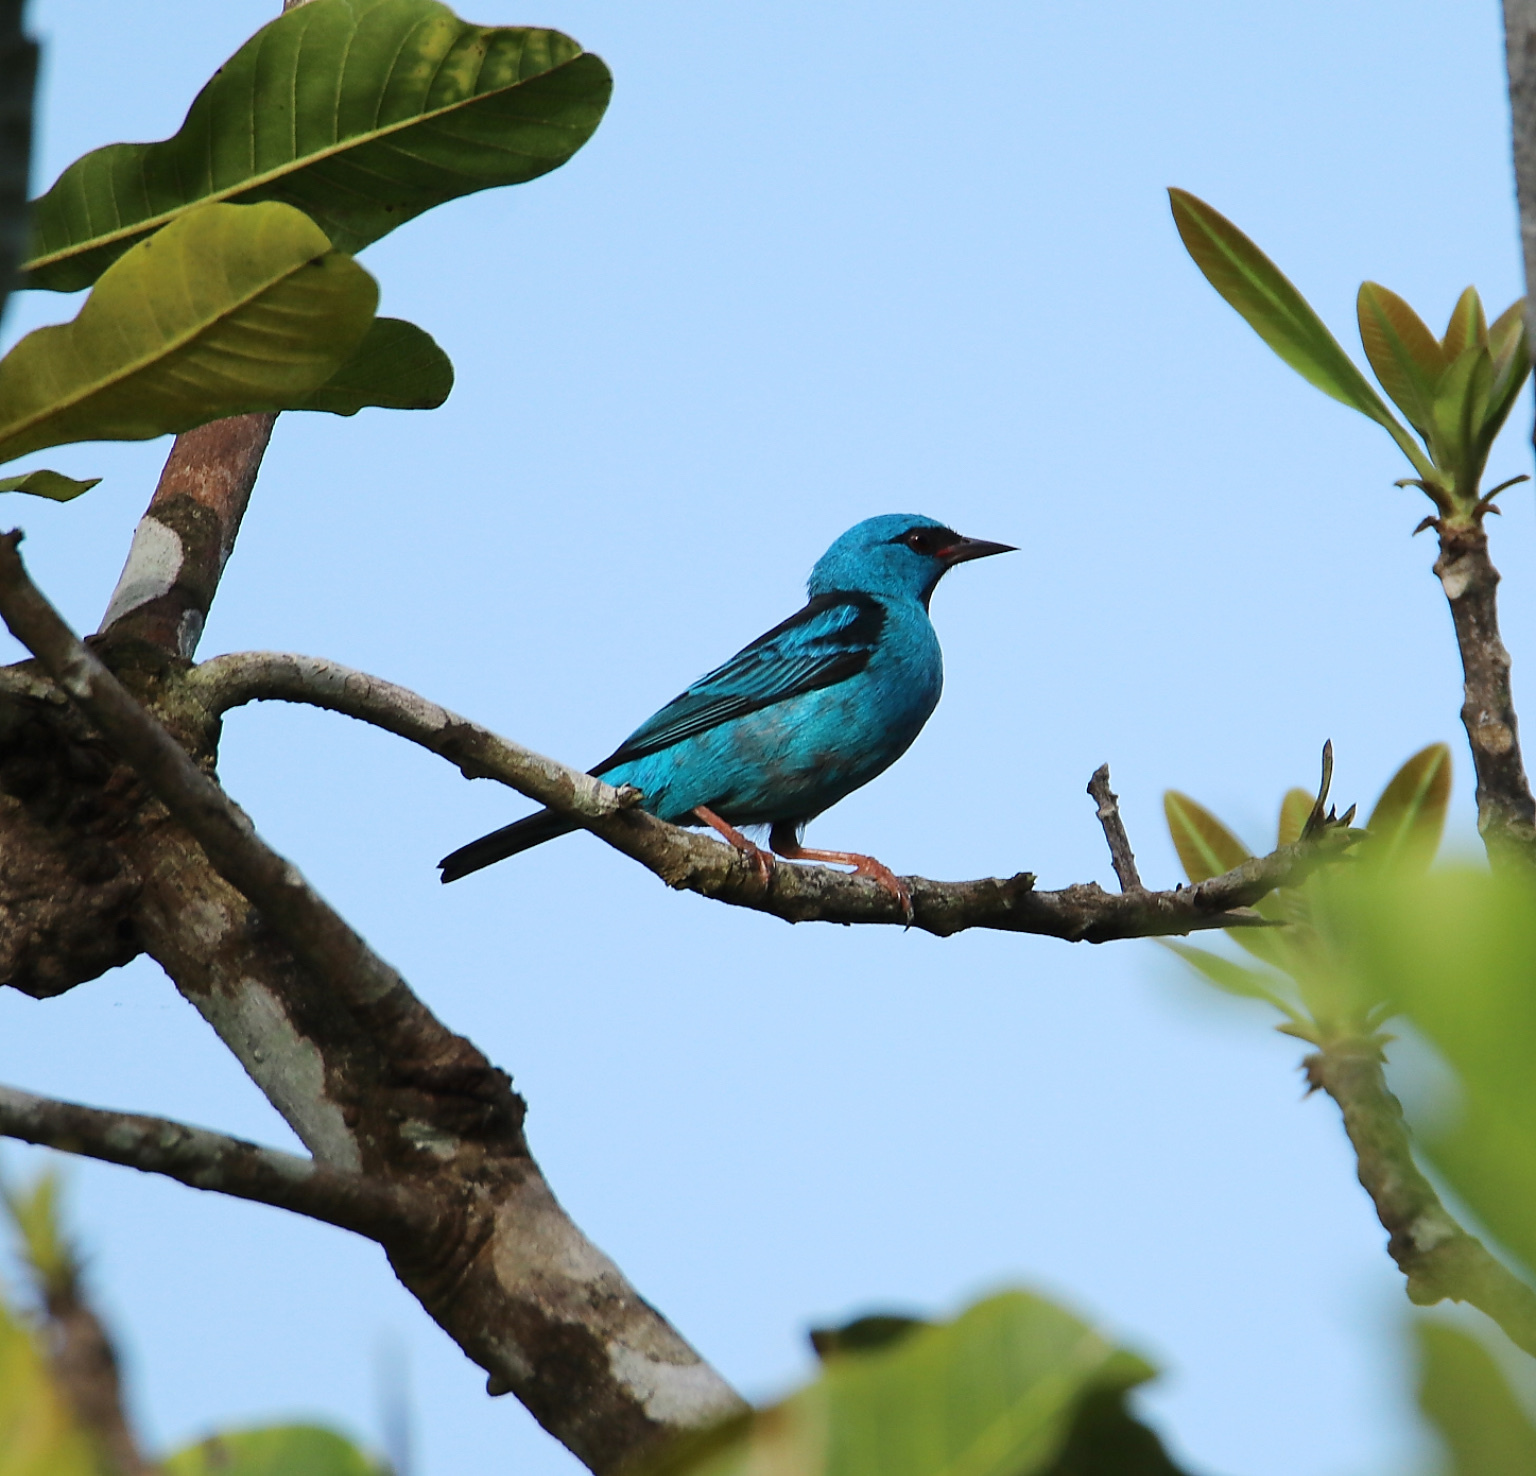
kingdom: Animalia
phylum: Chordata
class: Aves
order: Passeriformes
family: Thraupidae
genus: Dacnis
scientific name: Dacnis cayana
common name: Blue dacnis
